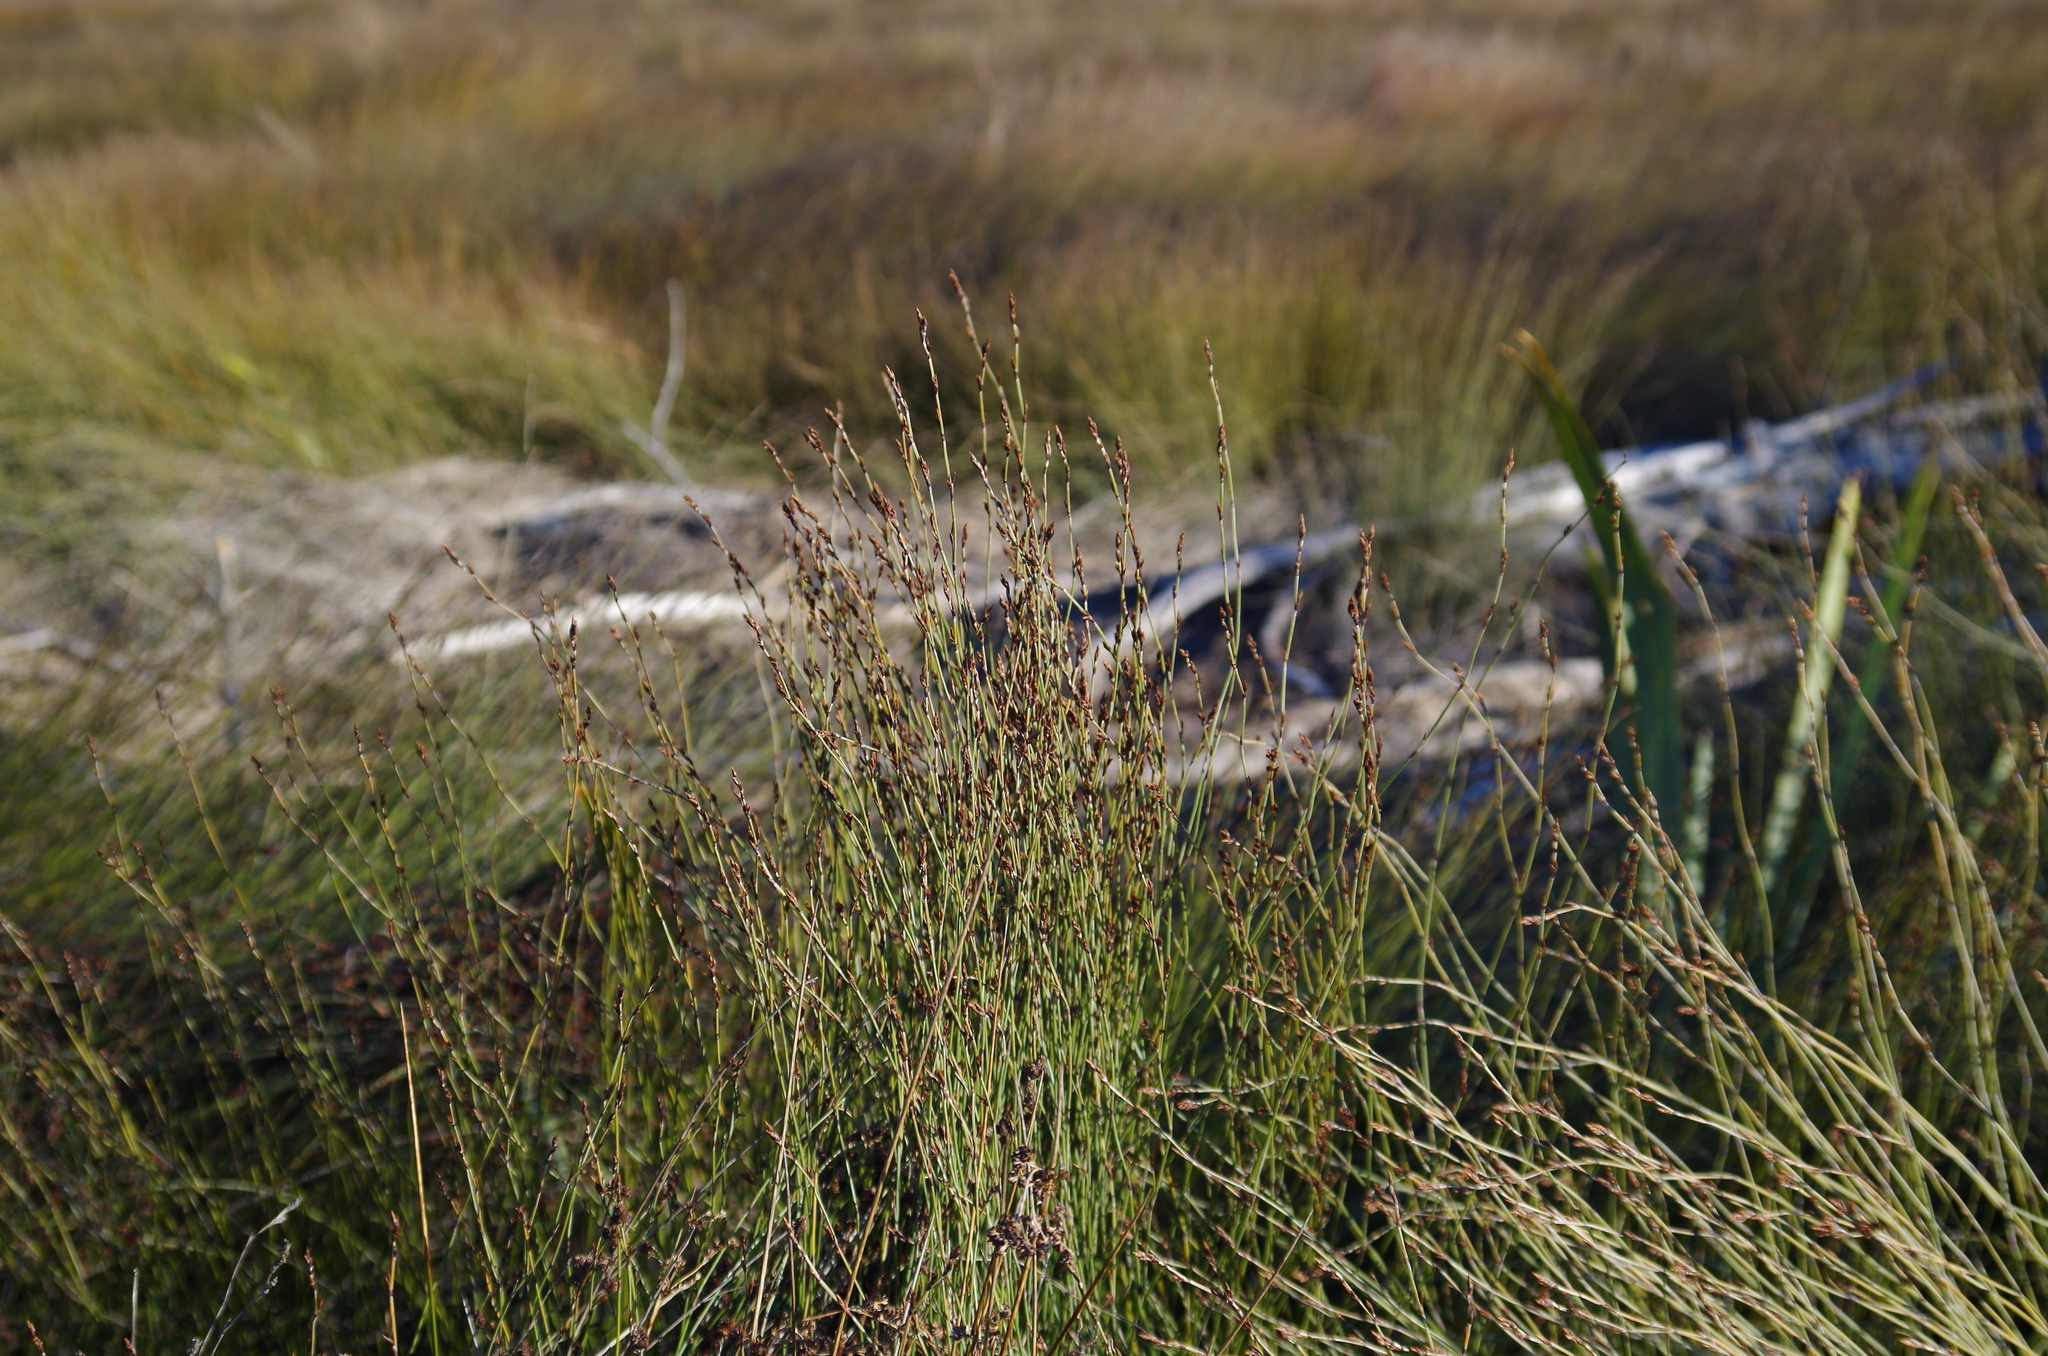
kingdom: Plantae
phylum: Tracheophyta
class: Liliopsida
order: Poales
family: Restionaceae
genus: Apodasmia
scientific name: Apodasmia similis
